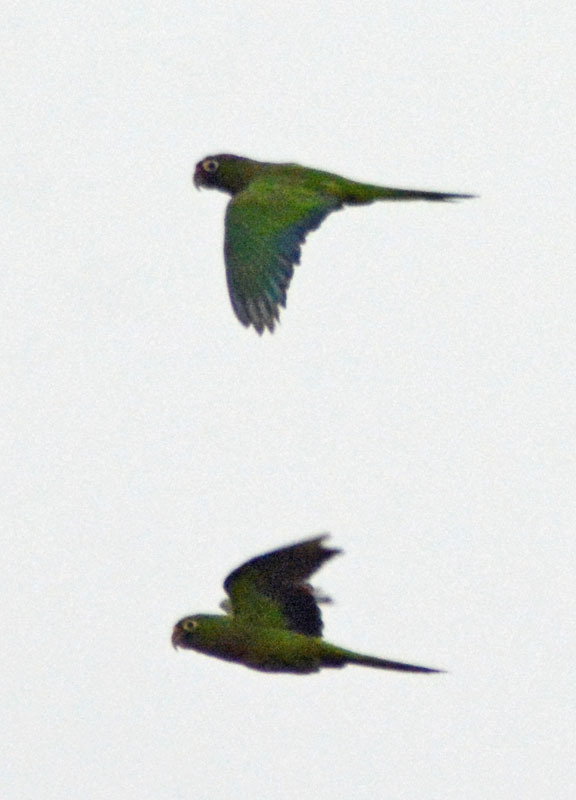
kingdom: Animalia
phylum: Chordata
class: Aves
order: Psittaciformes
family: Psittacidae
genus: Aratinga
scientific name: Aratinga nana
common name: Olive-throated parakeet
